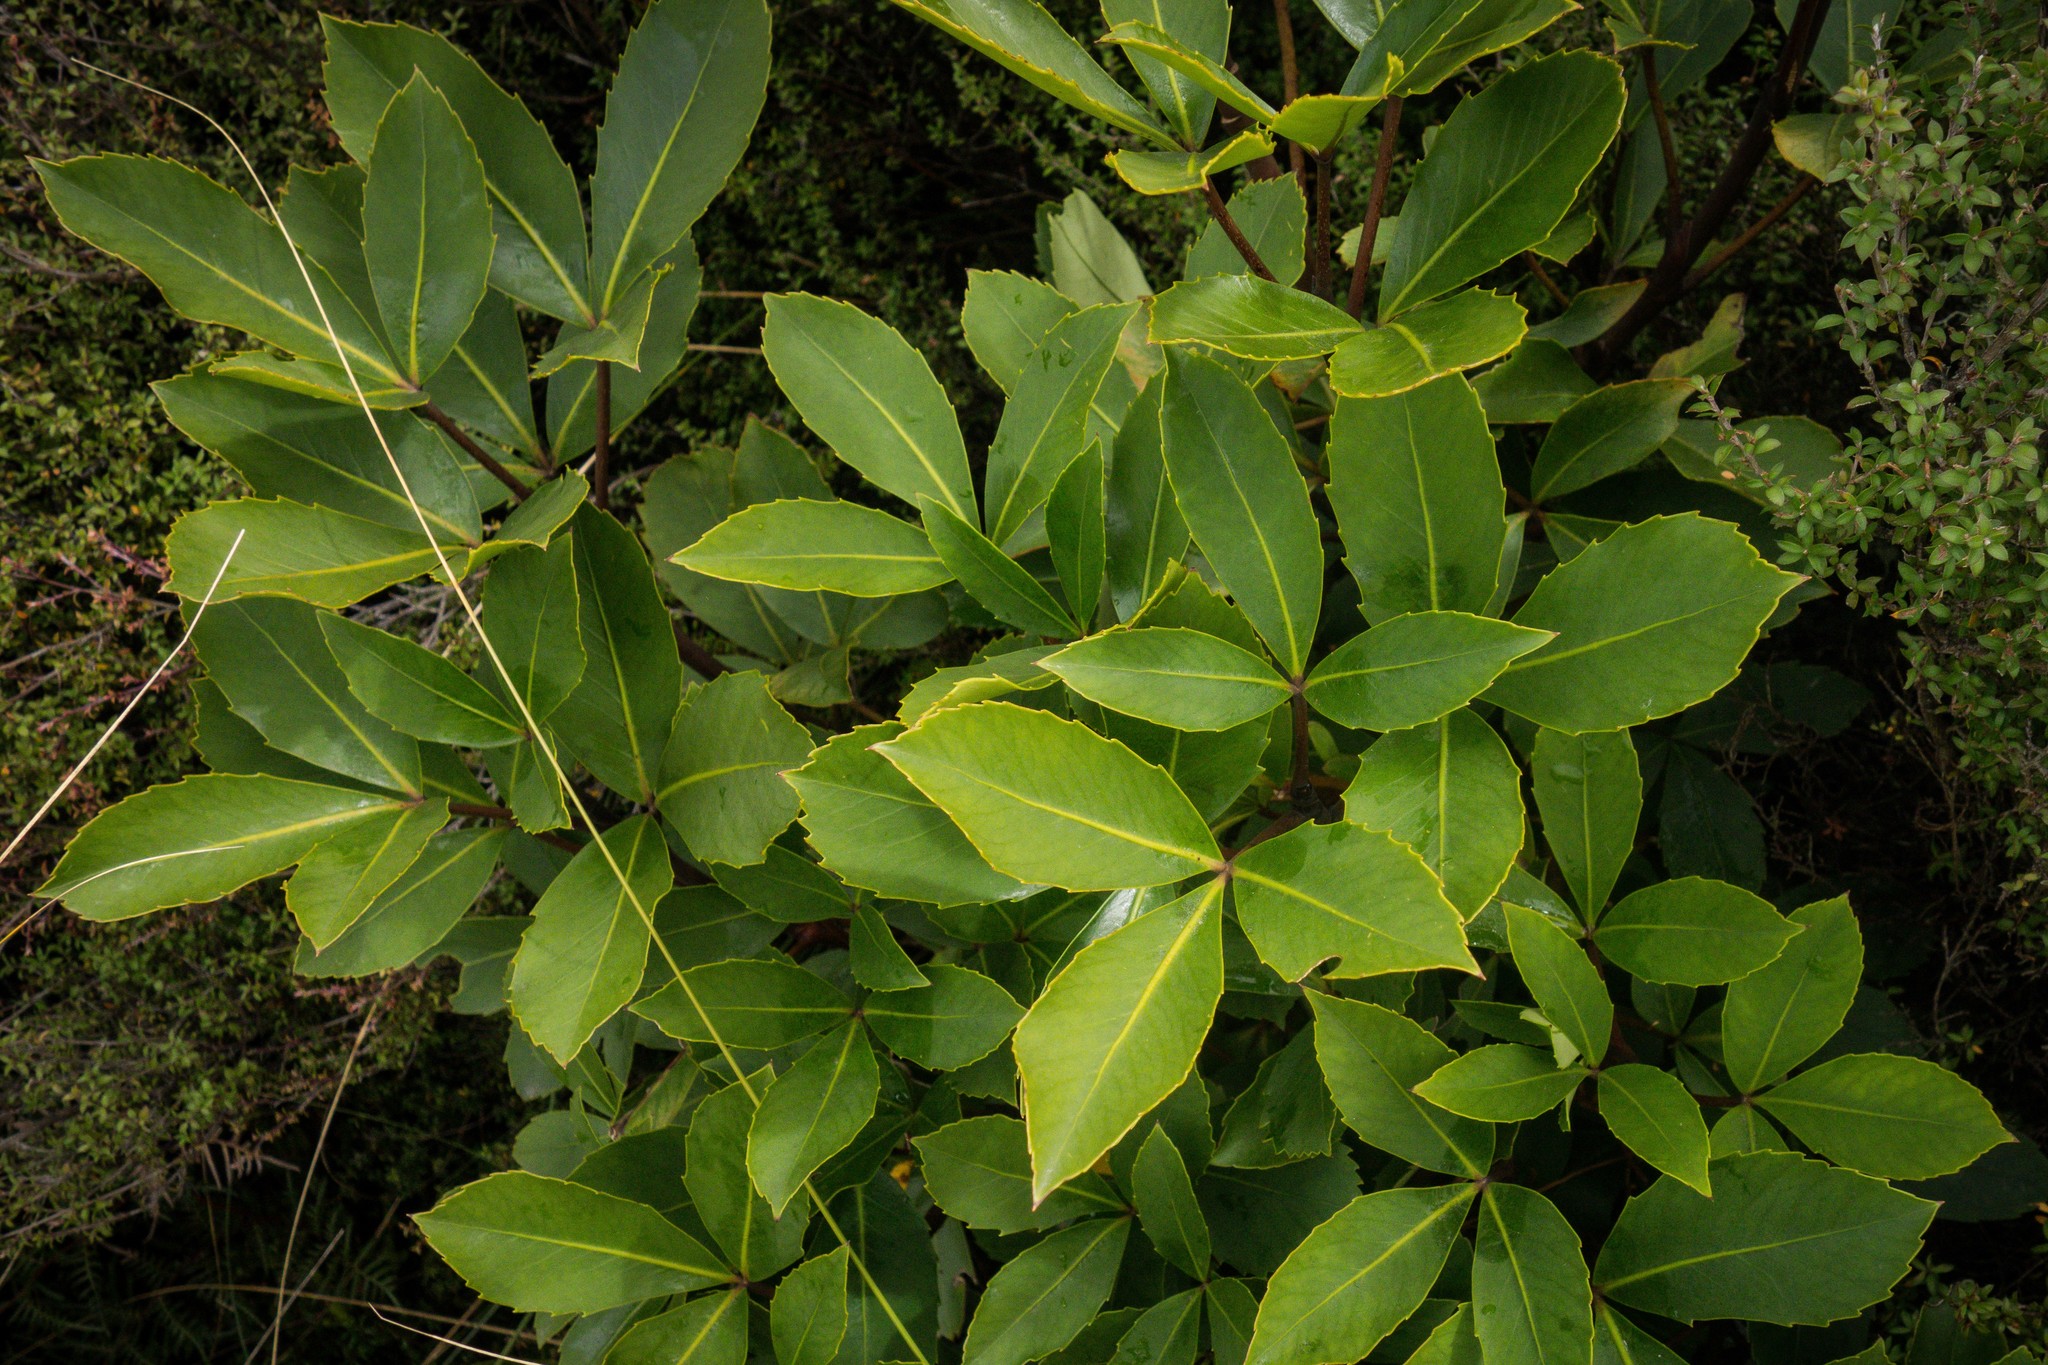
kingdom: Plantae
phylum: Tracheophyta
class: Magnoliopsida
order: Apiales
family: Araliaceae
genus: Neopanax
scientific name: Neopanax colensoi
